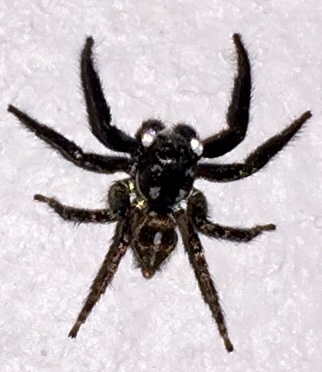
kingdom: Animalia
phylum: Arthropoda
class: Arachnida
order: Araneae
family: Salticidae
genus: Anasaitis
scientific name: Anasaitis canosa
